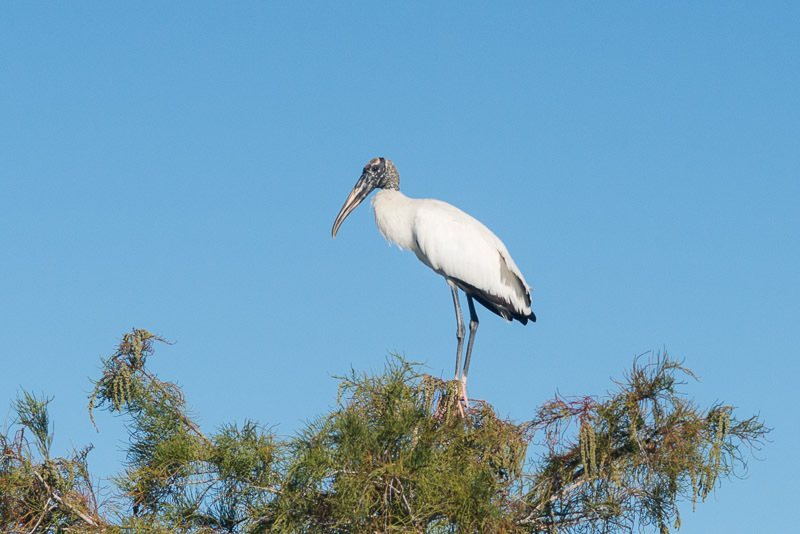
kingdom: Animalia
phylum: Chordata
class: Aves
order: Ciconiiformes
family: Ciconiidae
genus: Mycteria
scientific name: Mycteria americana
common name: Wood stork
